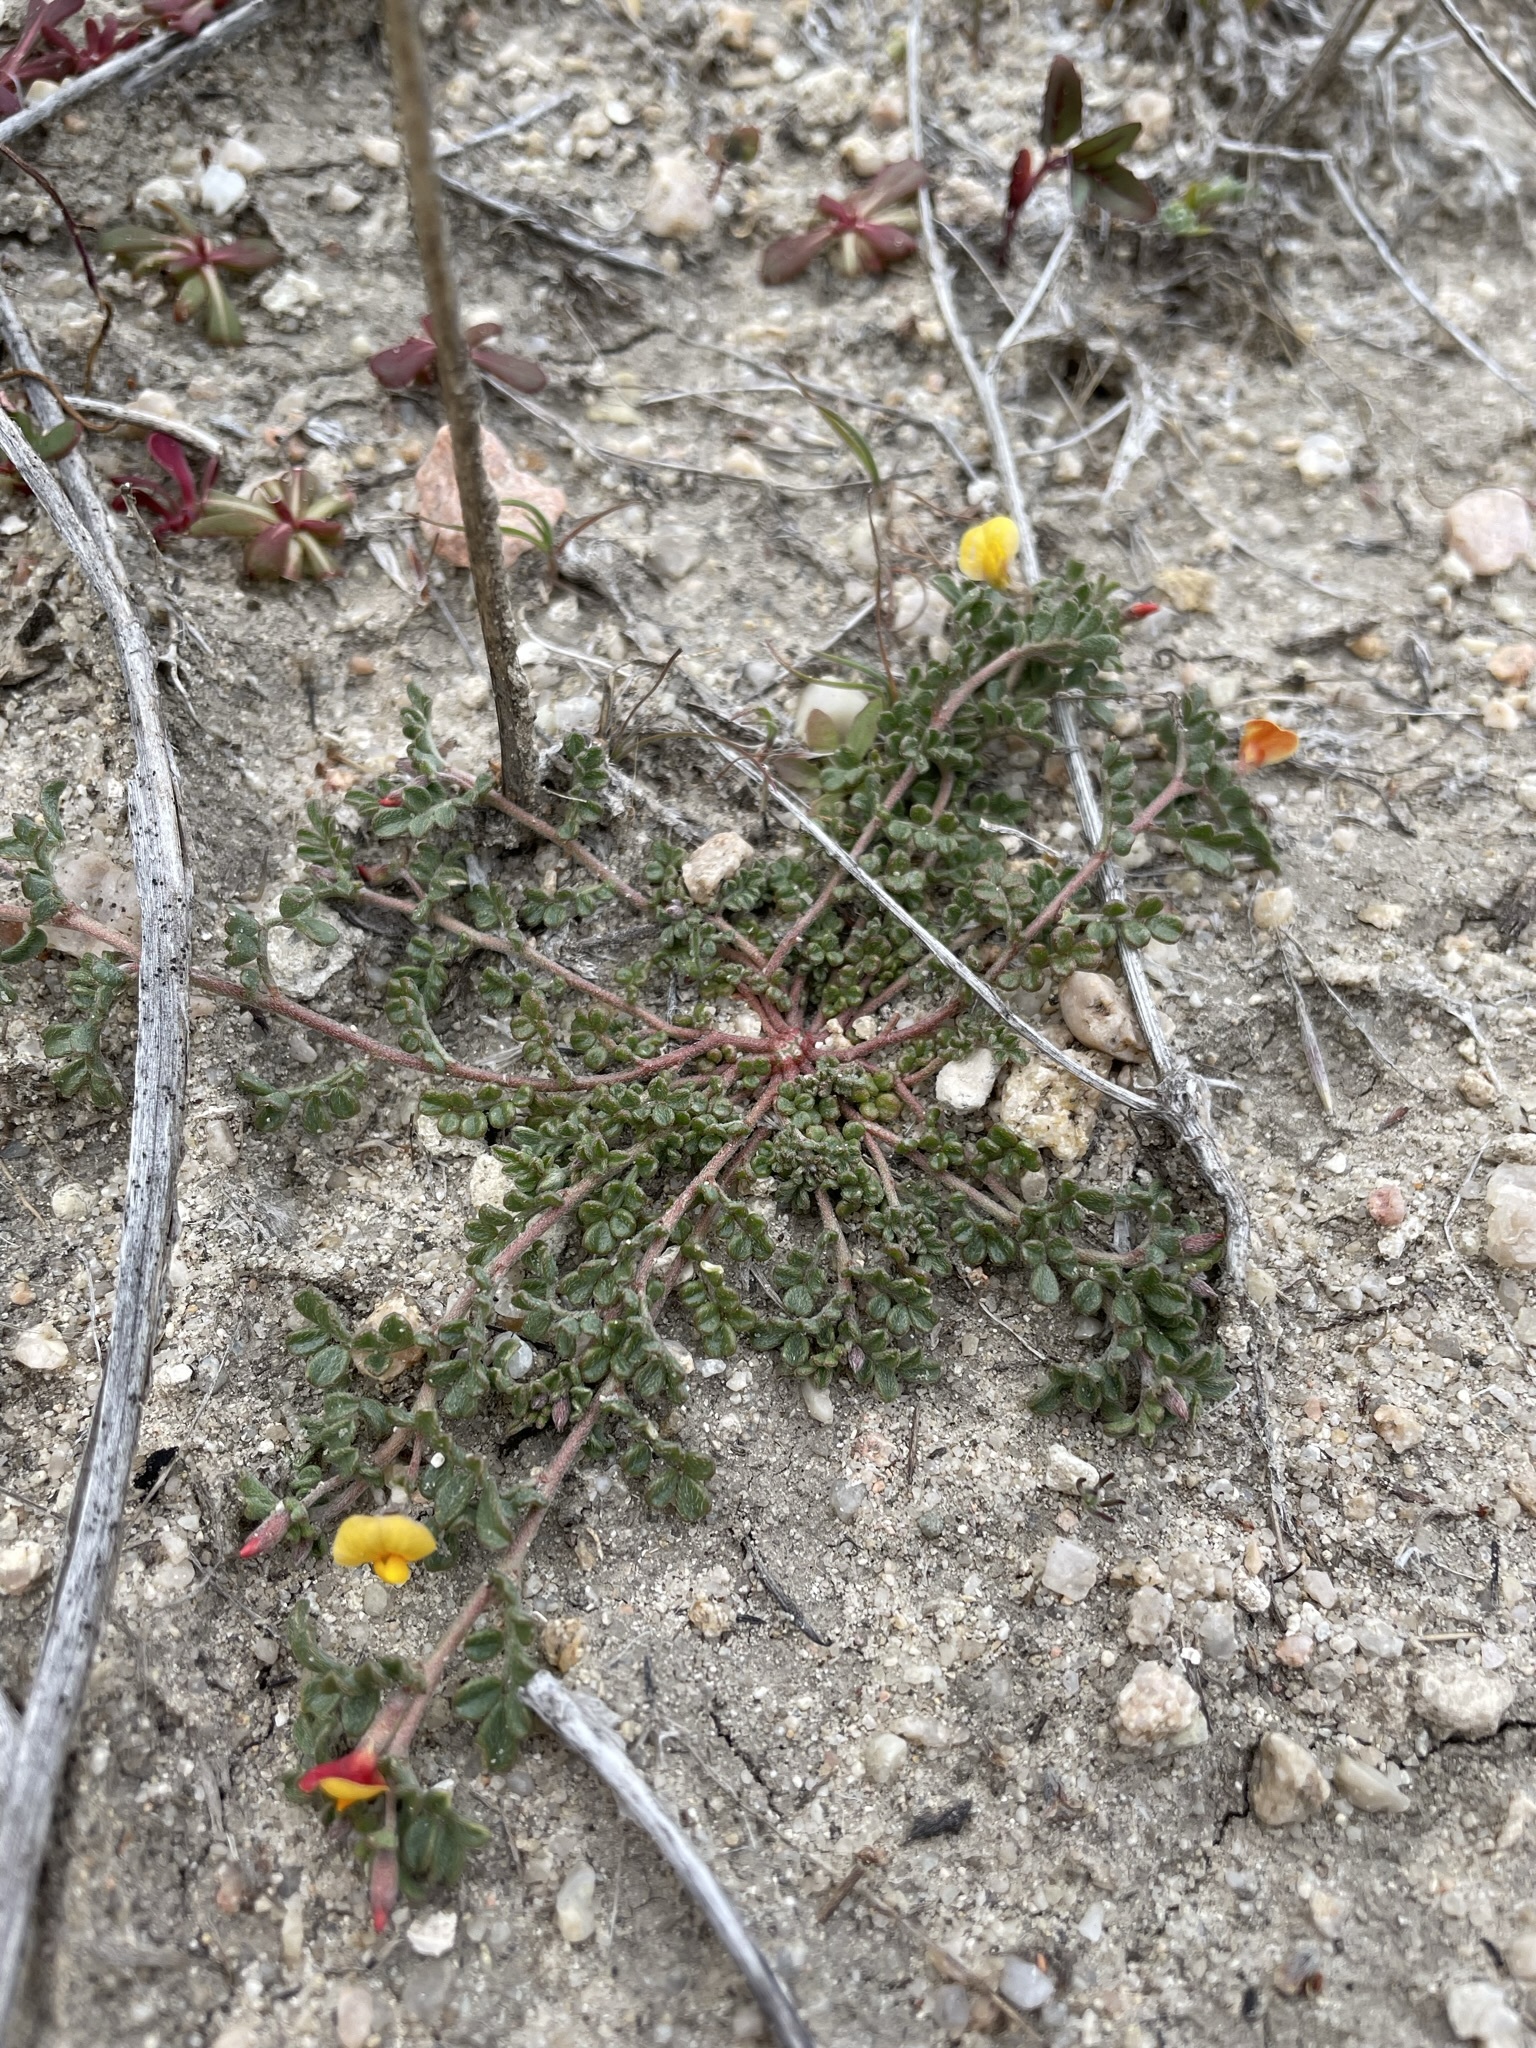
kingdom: Plantae
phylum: Tracheophyta
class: Magnoliopsida
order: Fabales
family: Fabaceae
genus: Acmispon
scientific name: Acmispon strigosus
